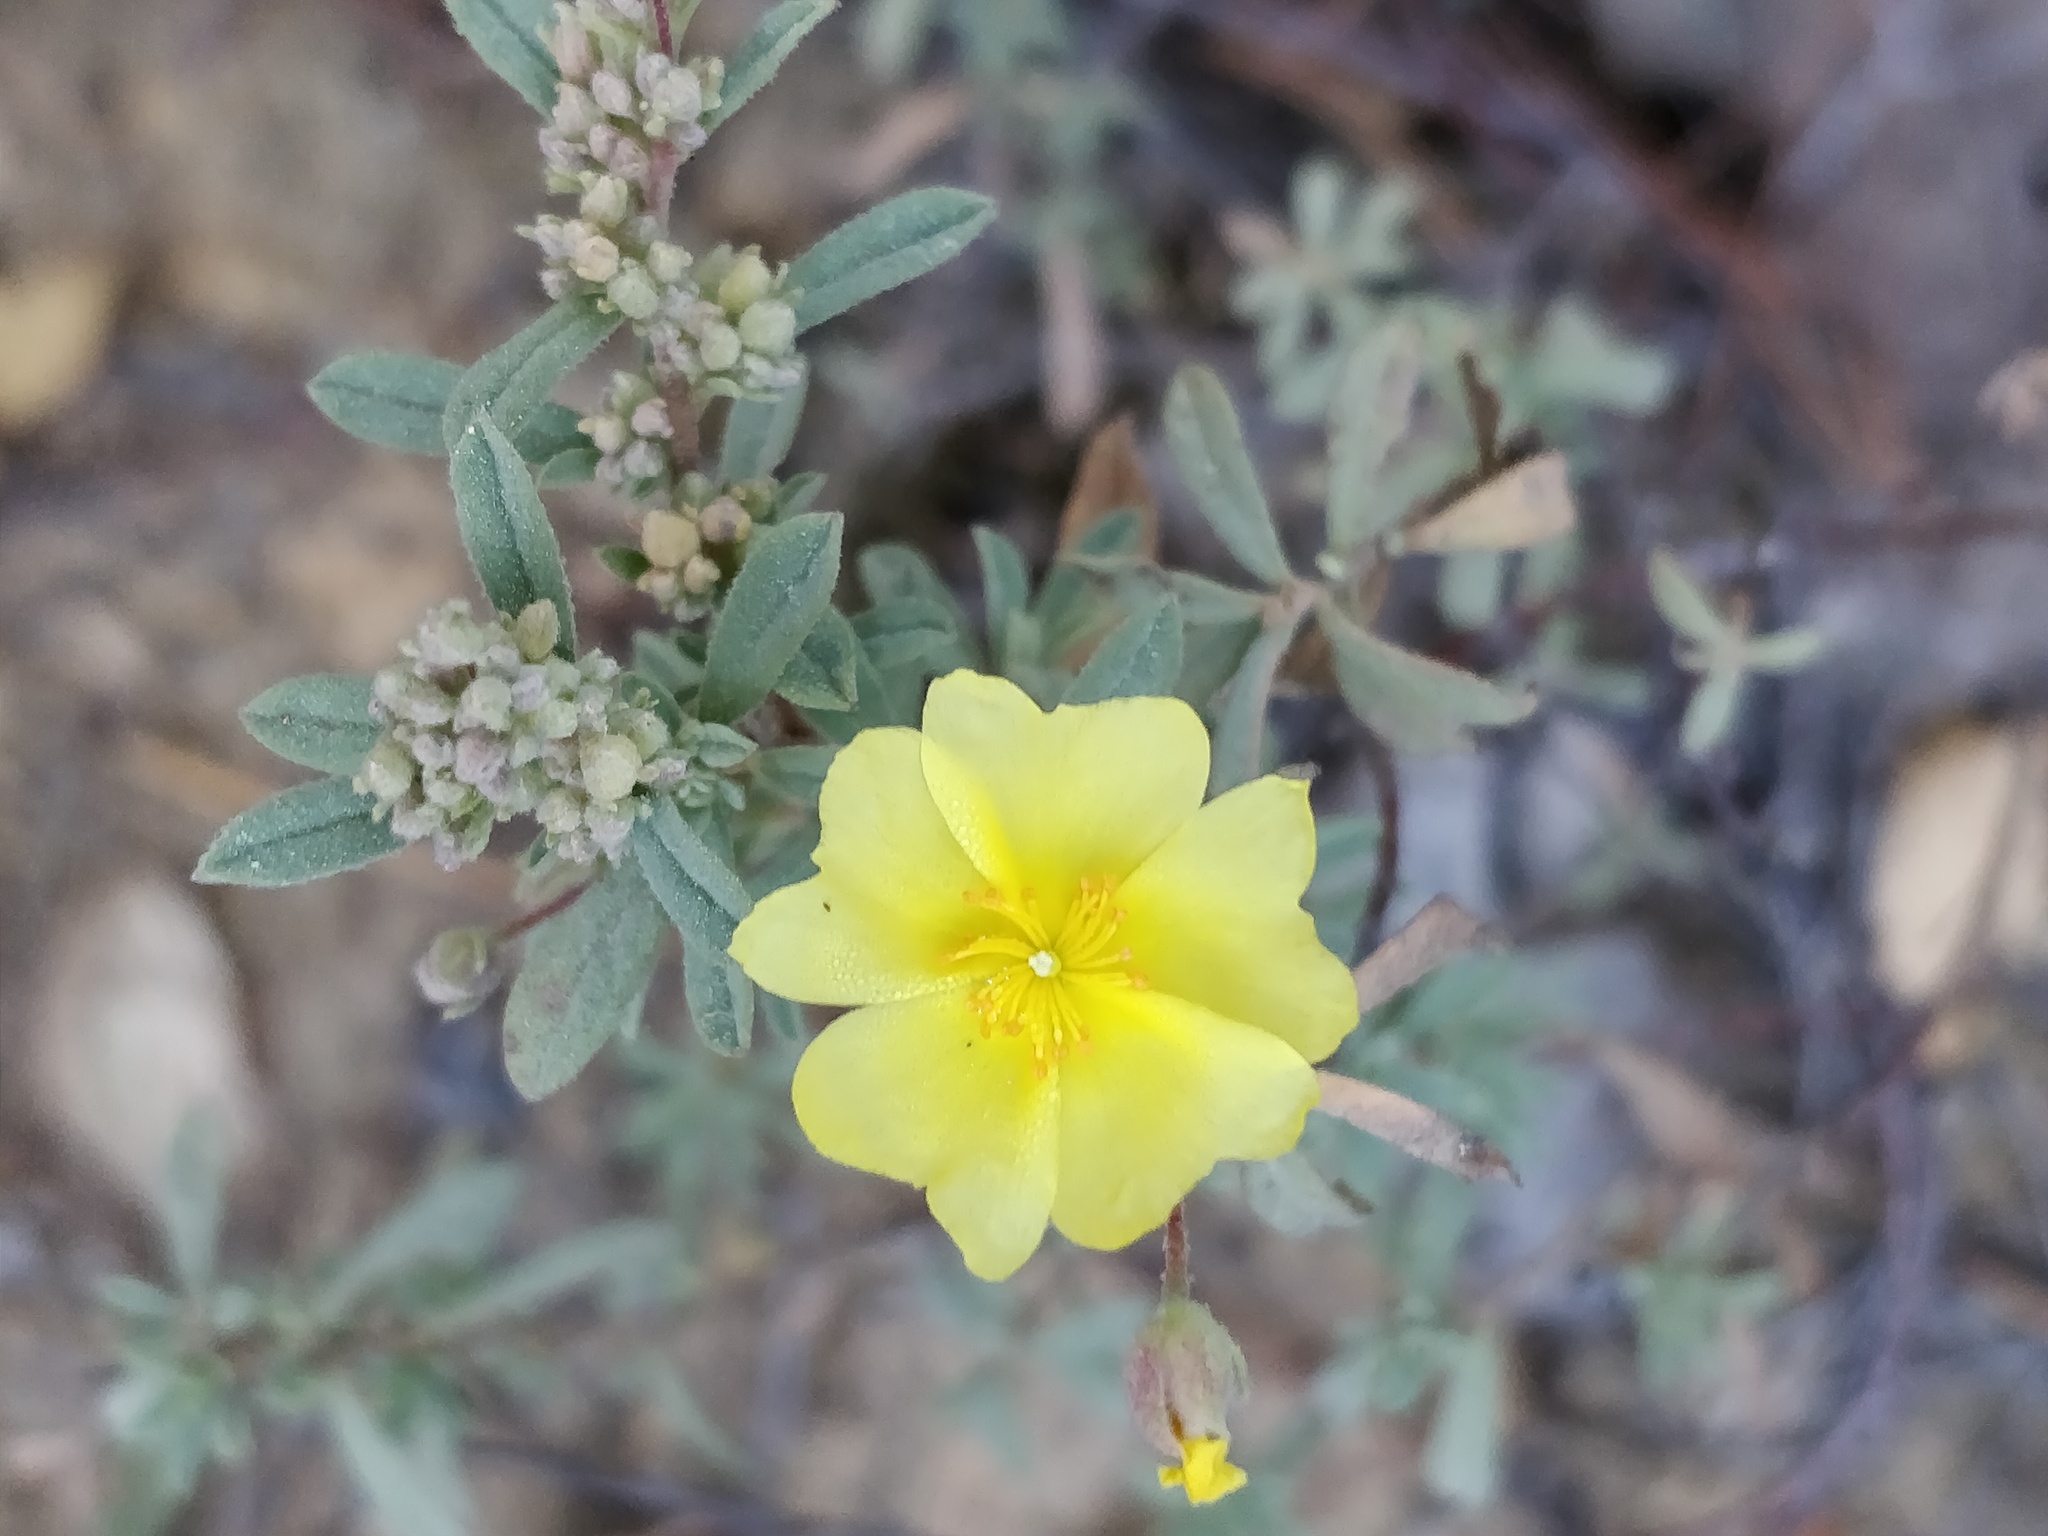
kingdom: Plantae
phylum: Tracheophyta
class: Magnoliopsida
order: Malvales
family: Cistaceae
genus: Crocanthemum
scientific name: Crocanthemum glomeratum
